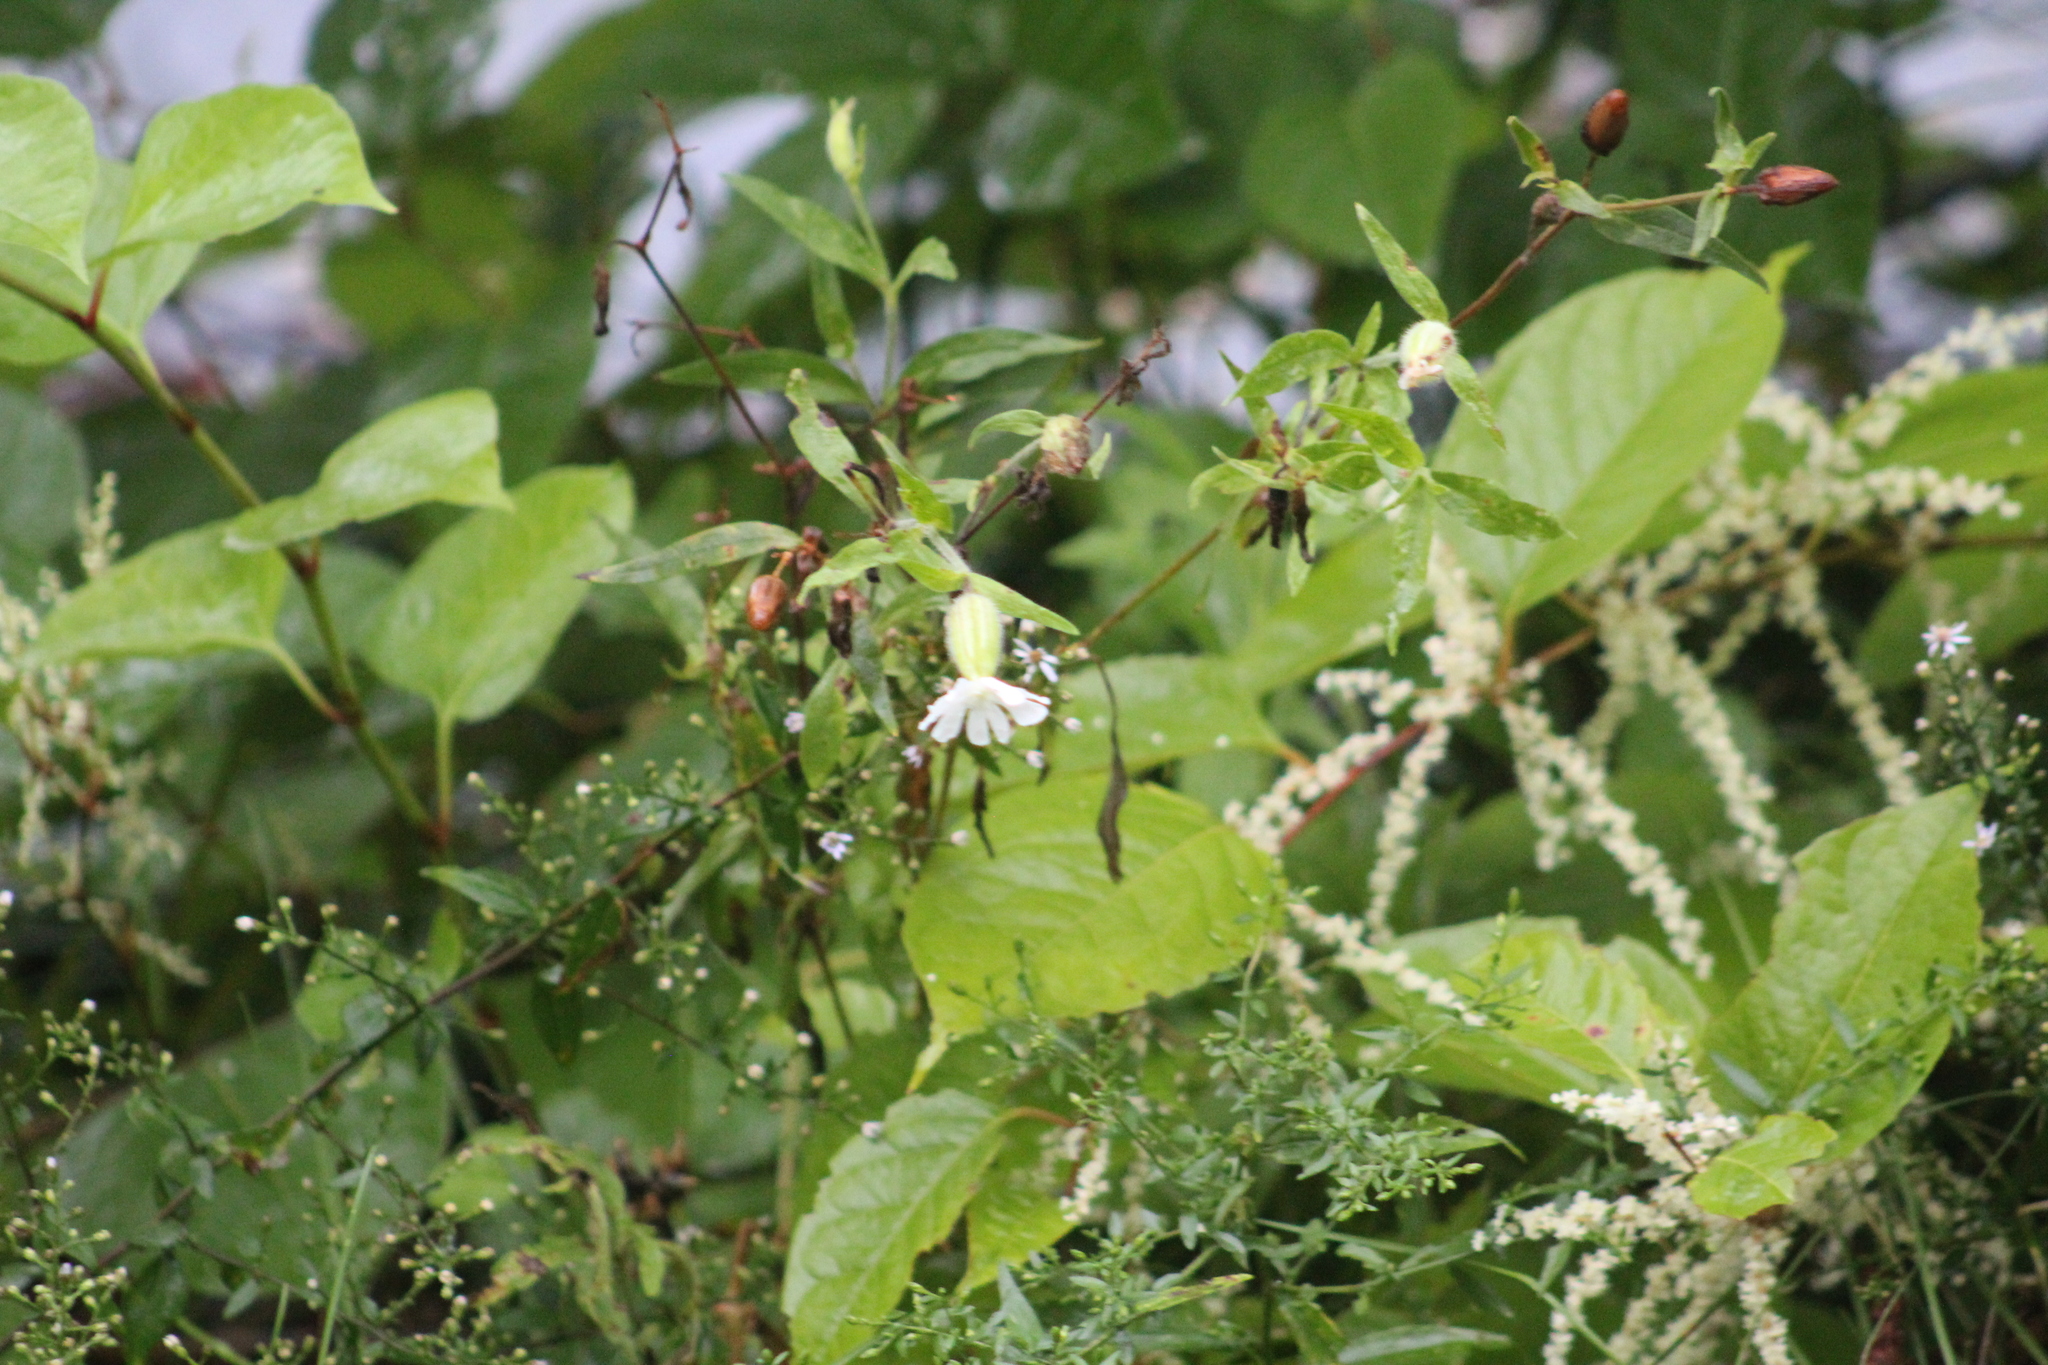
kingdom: Plantae
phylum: Tracheophyta
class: Magnoliopsida
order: Caryophyllales
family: Caryophyllaceae
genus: Silene
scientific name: Silene latifolia
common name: White campion
